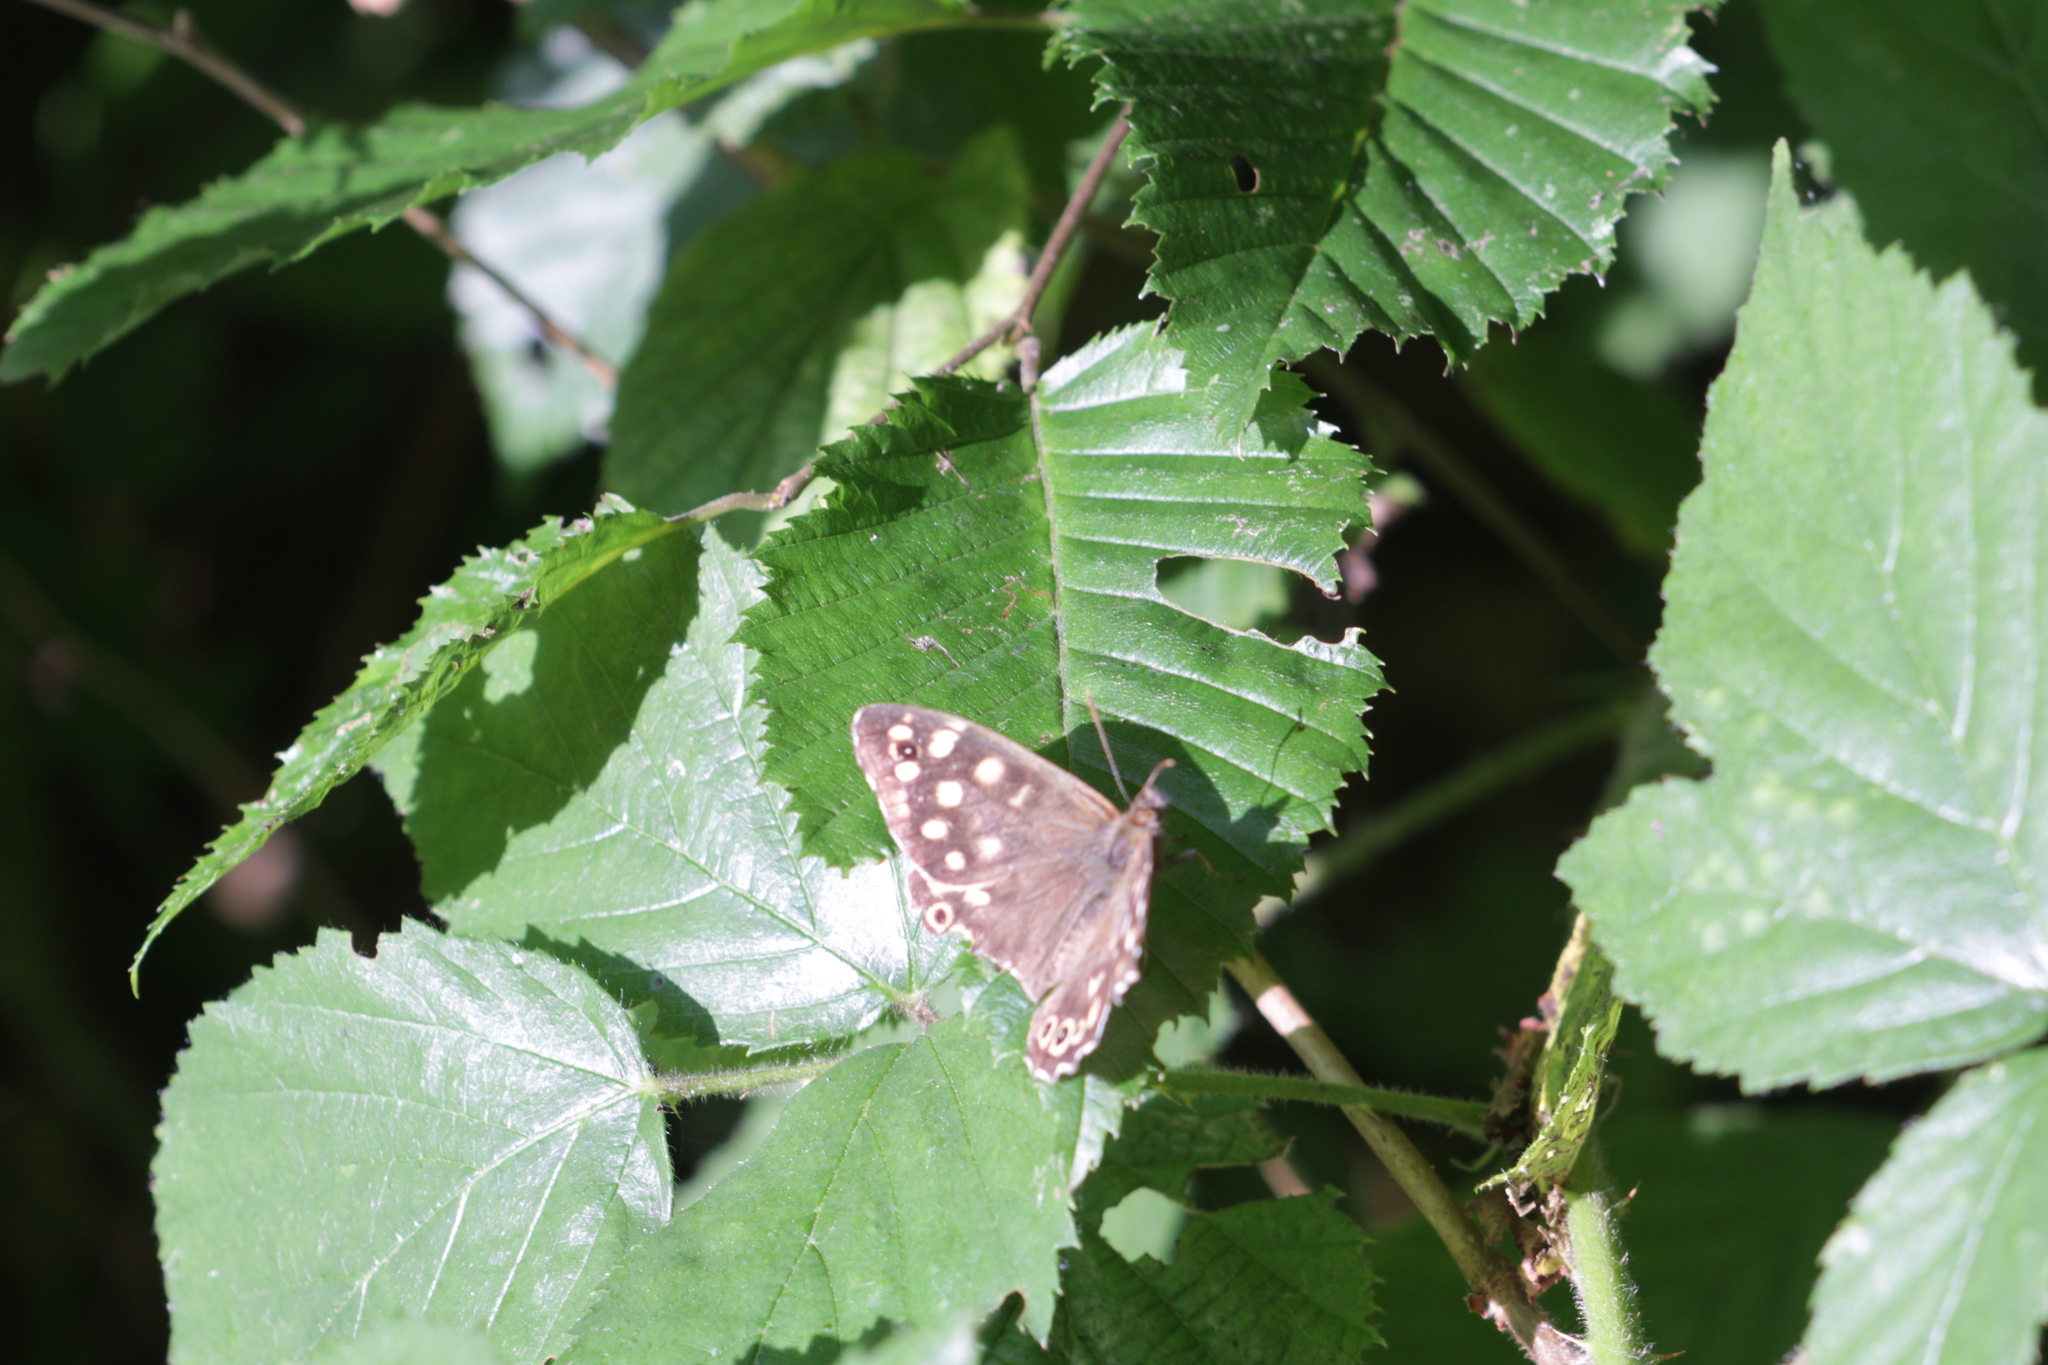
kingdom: Animalia
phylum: Arthropoda
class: Insecta
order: Lepidoptera
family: Nymphalidae
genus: Pararge
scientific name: Pararge aegeria
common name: Speckled wood
